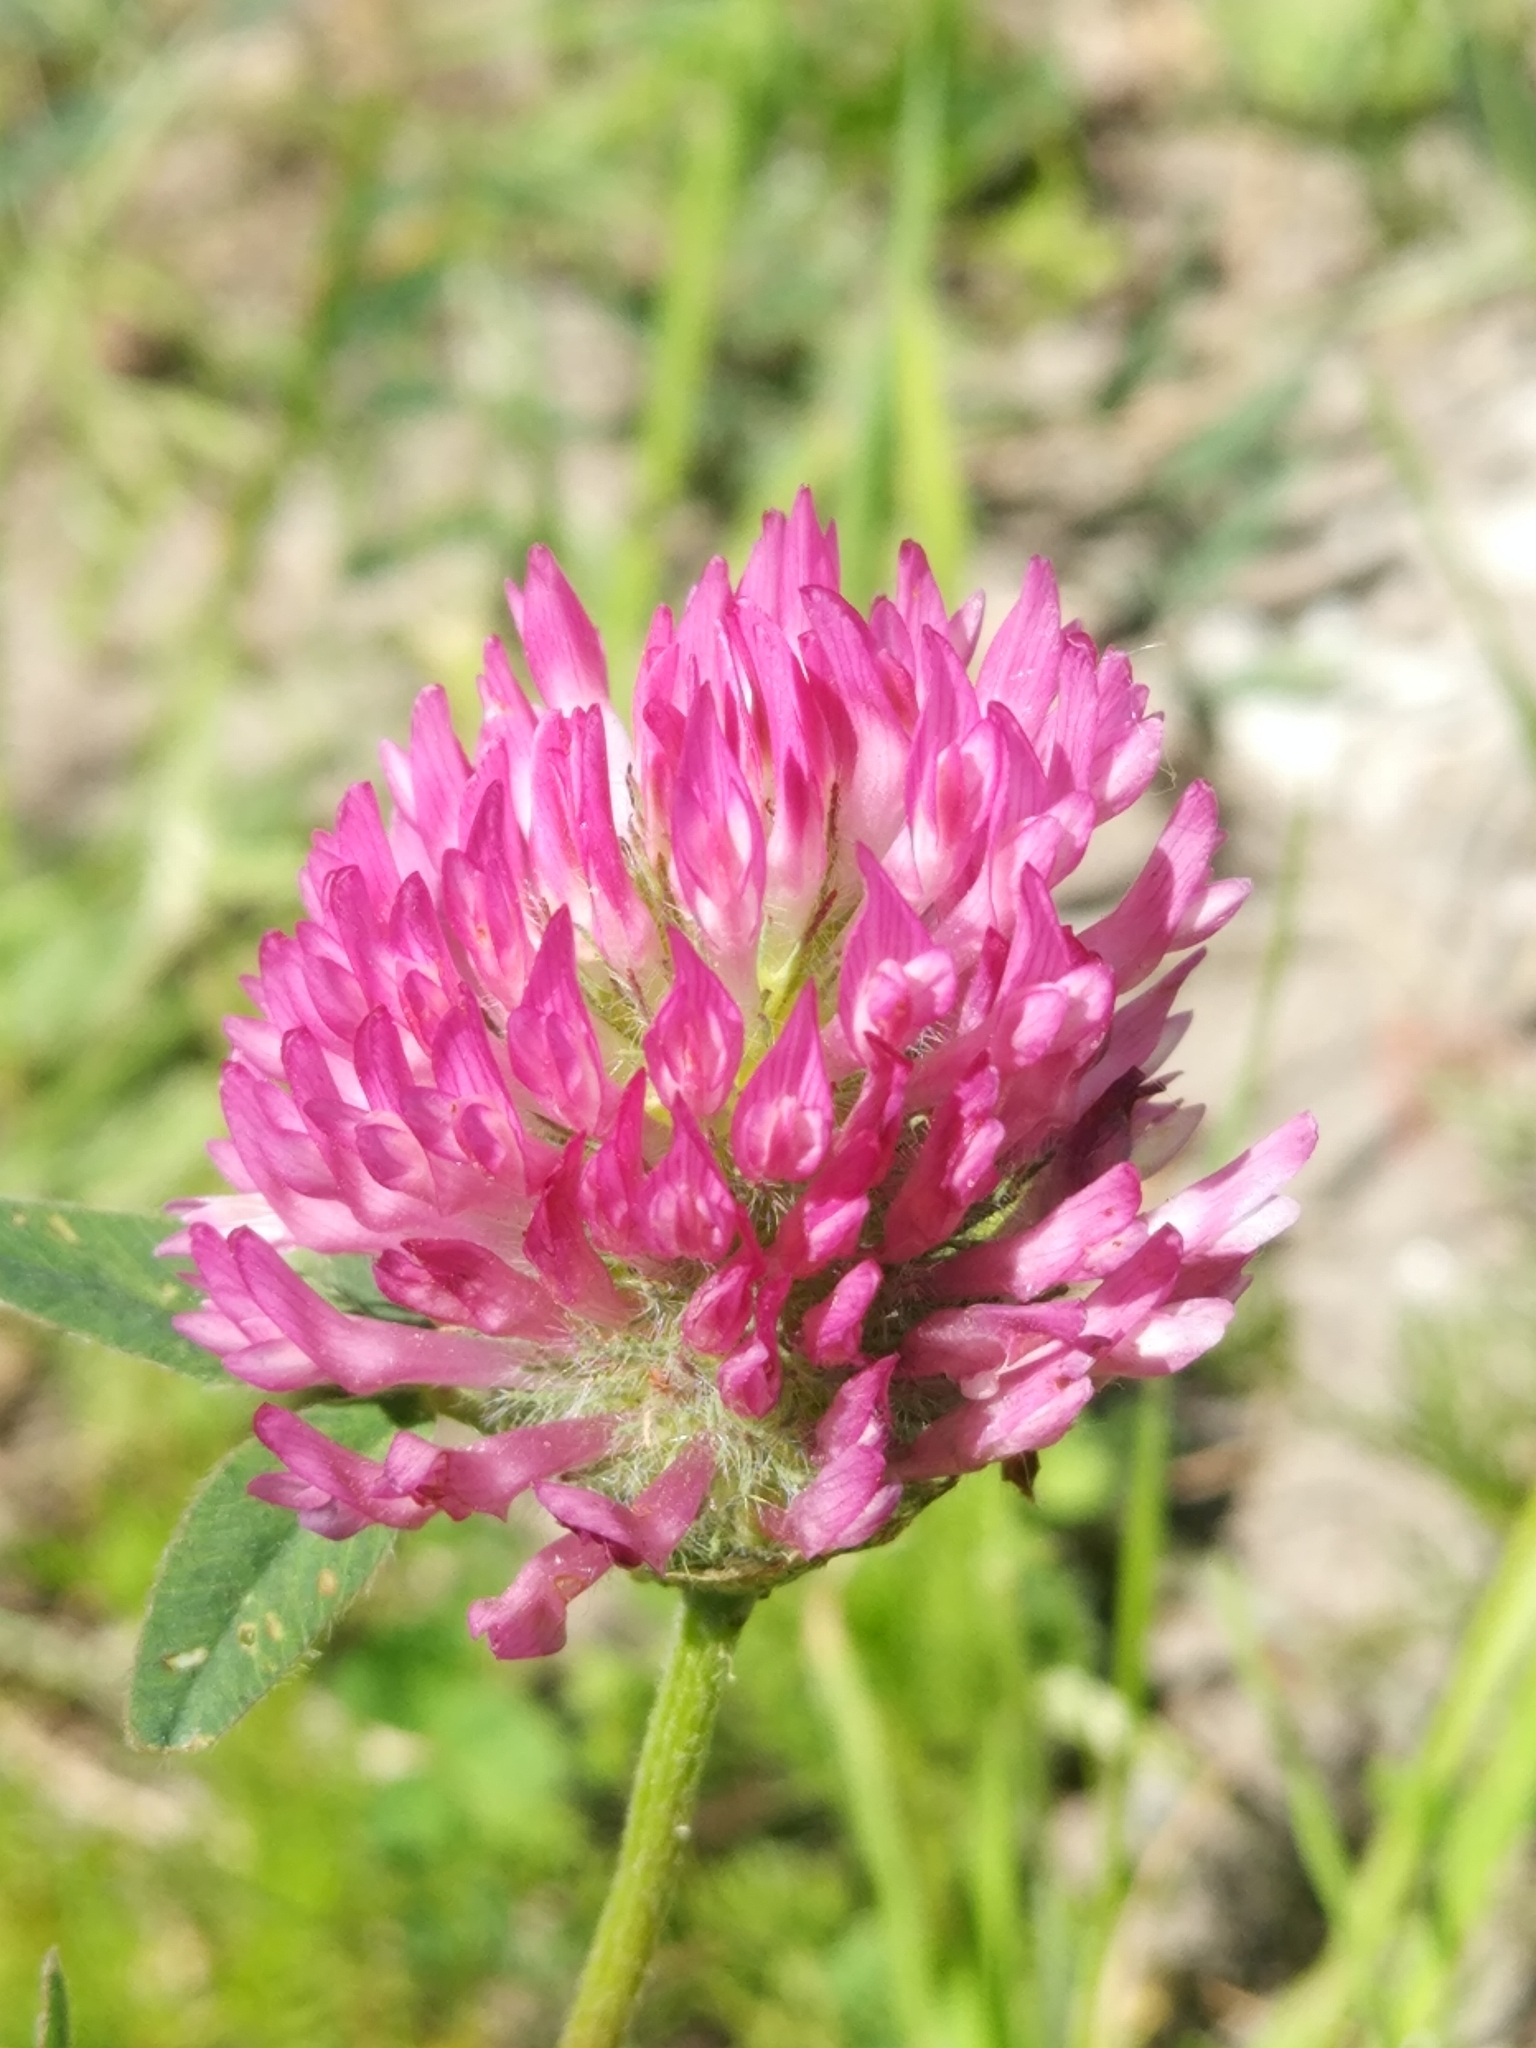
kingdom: Plantae
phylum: Tracheophyta
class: Magnoliopsida
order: Fabales
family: Fabaceae
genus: Trifolium
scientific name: Trifolium pratense
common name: Red clover
